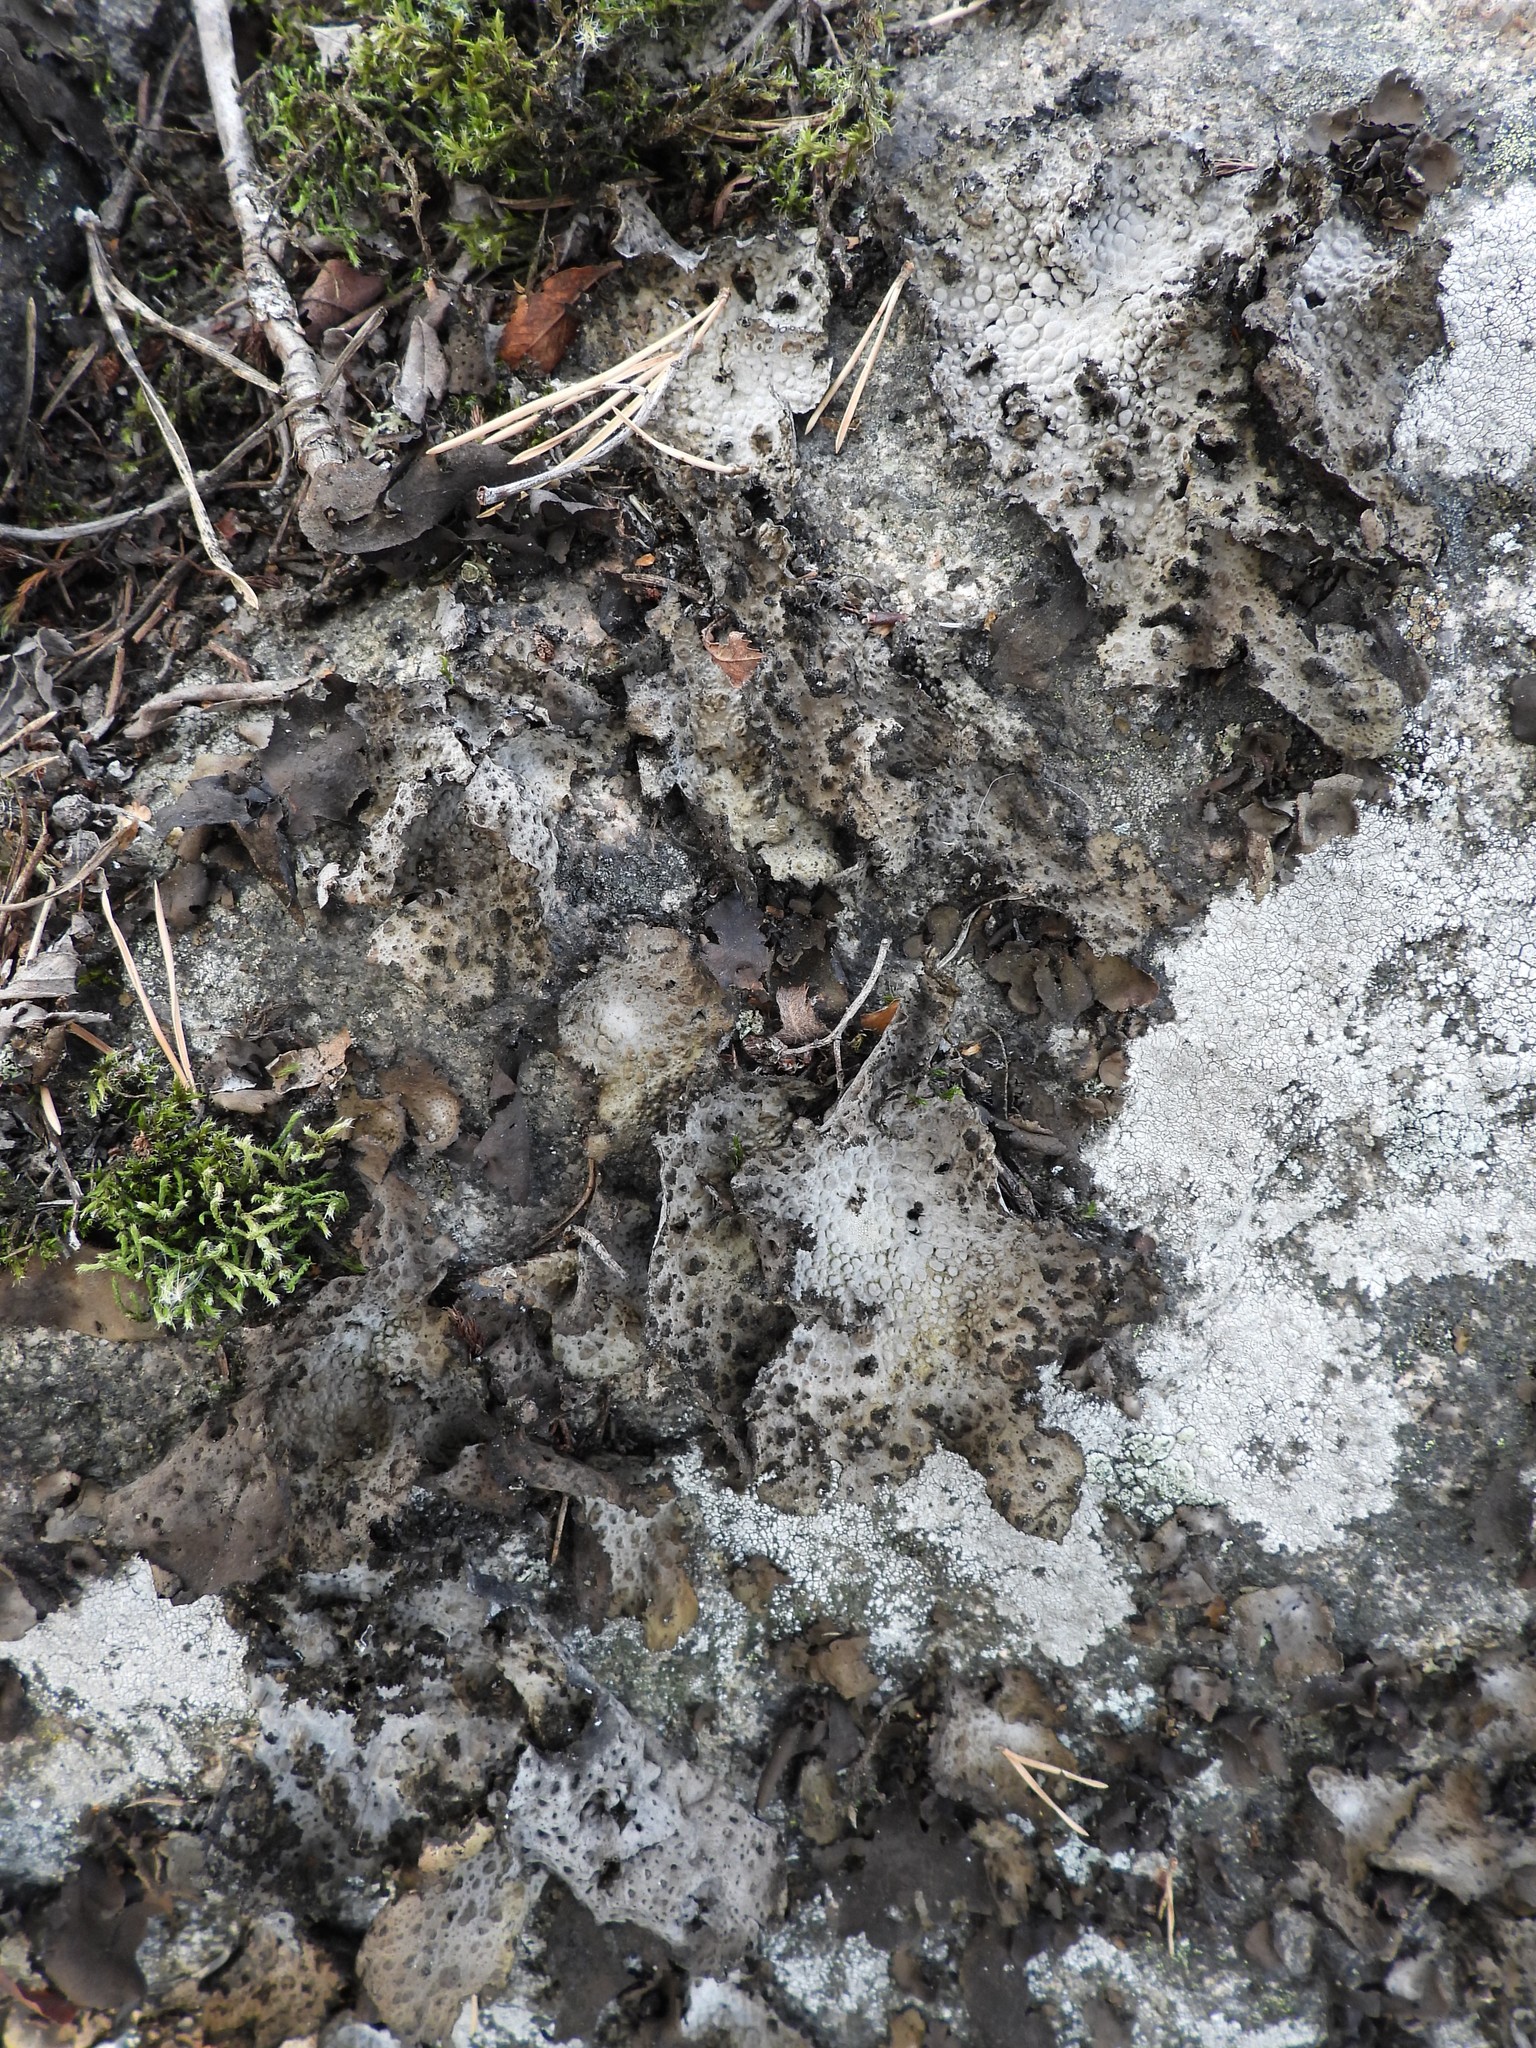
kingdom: Fungi
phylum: Ascomycota
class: Lecanoromycetes
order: Umbilicariales
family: Umbilicariaceae
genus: Lasallia
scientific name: Lasallia pustulata
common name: Blistered toadskin lichen
